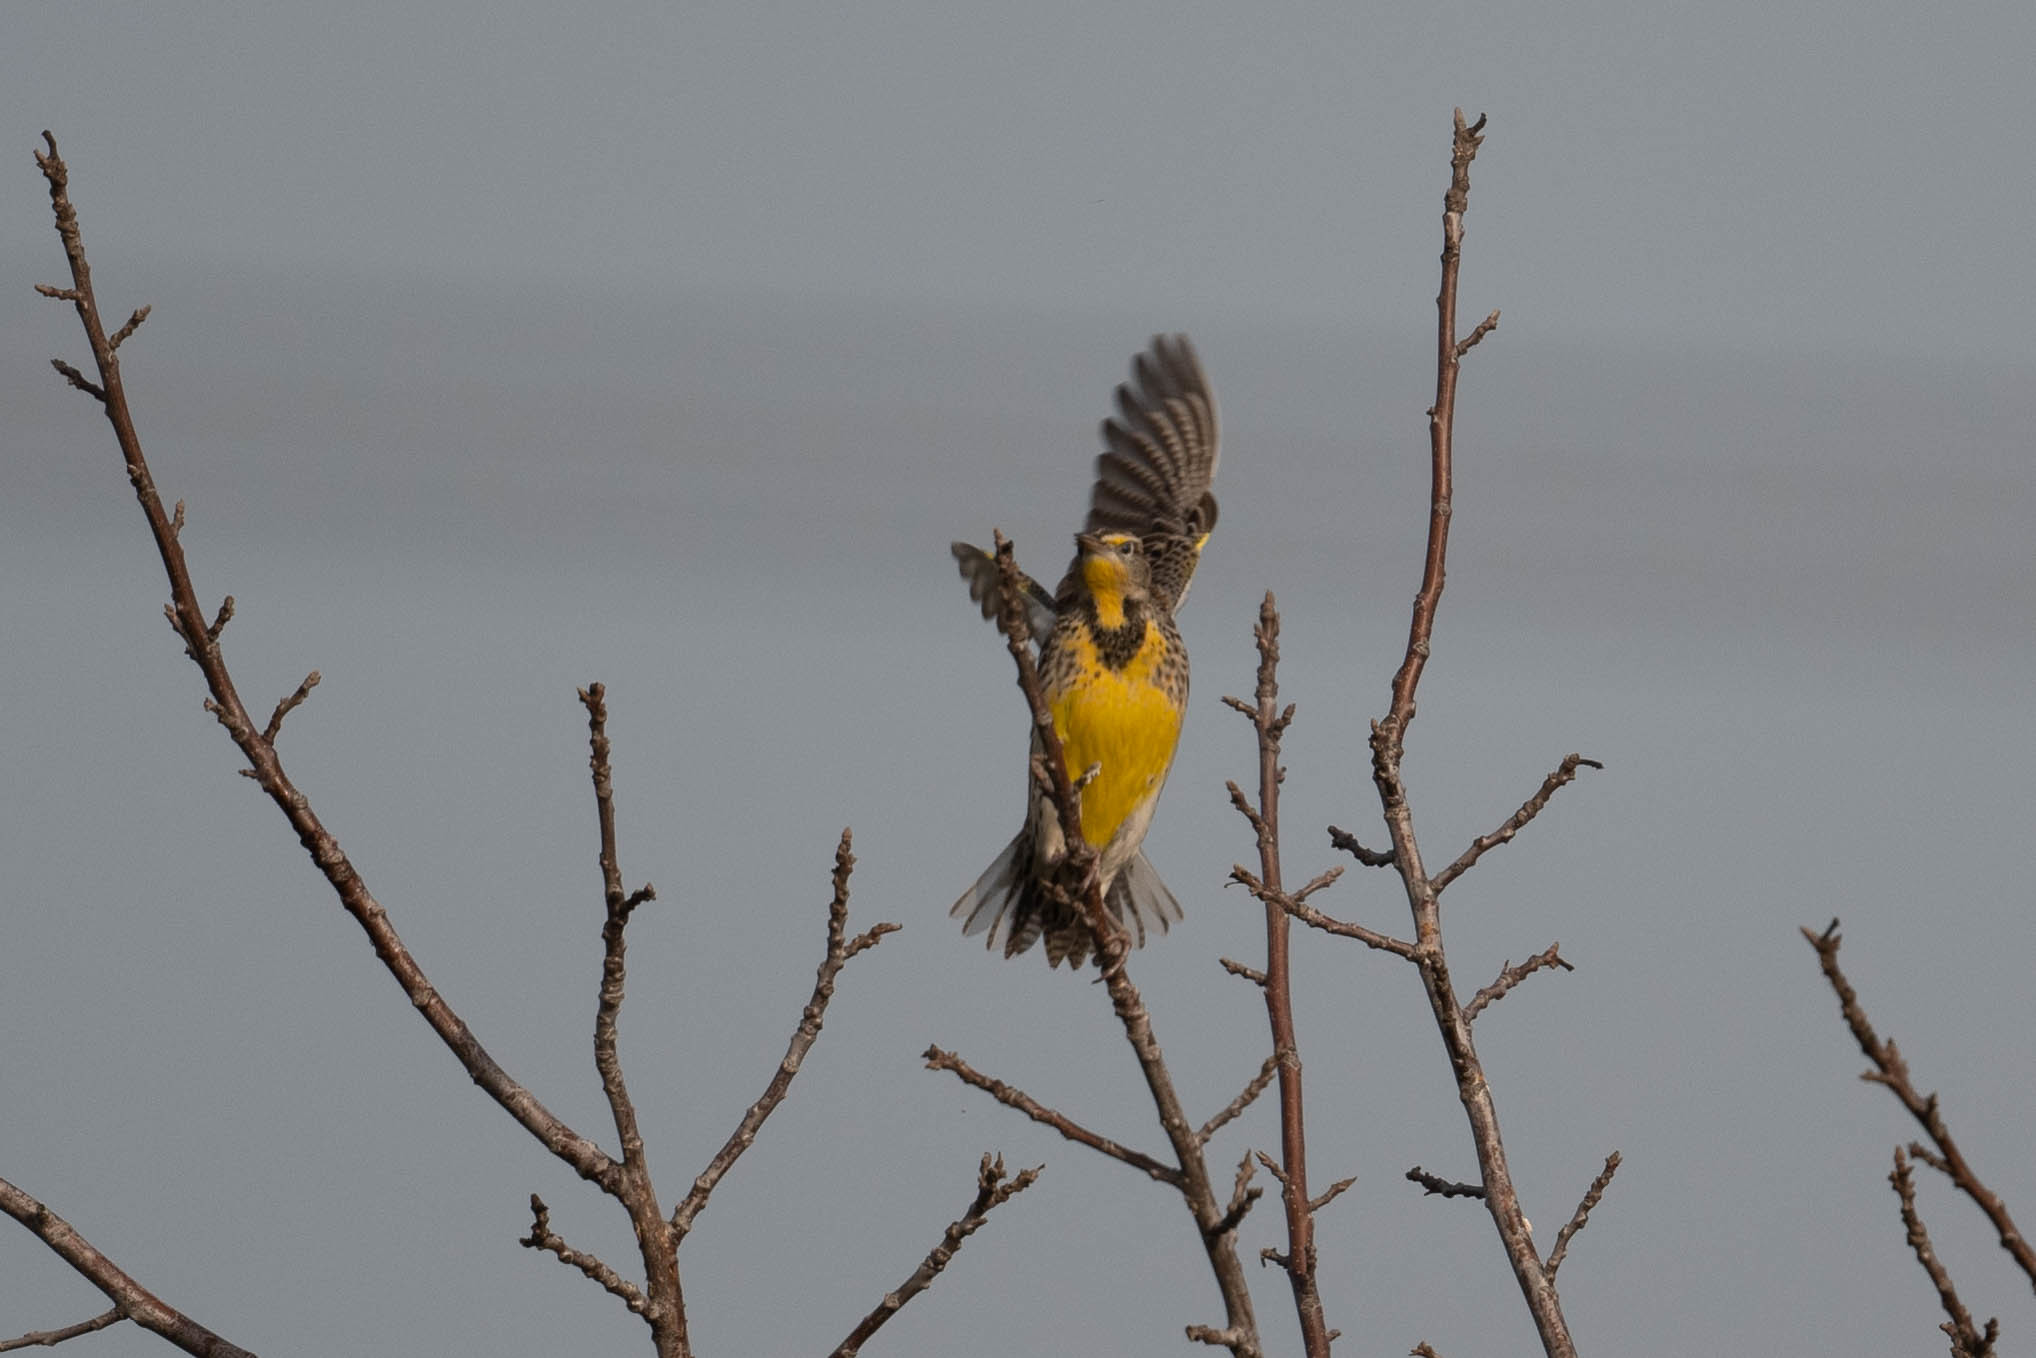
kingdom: Animalia
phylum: Chordata
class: Aves
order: Passeriformes
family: Icteridae
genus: Sturnella
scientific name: Sturnella neglecta
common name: Western meadowlark
